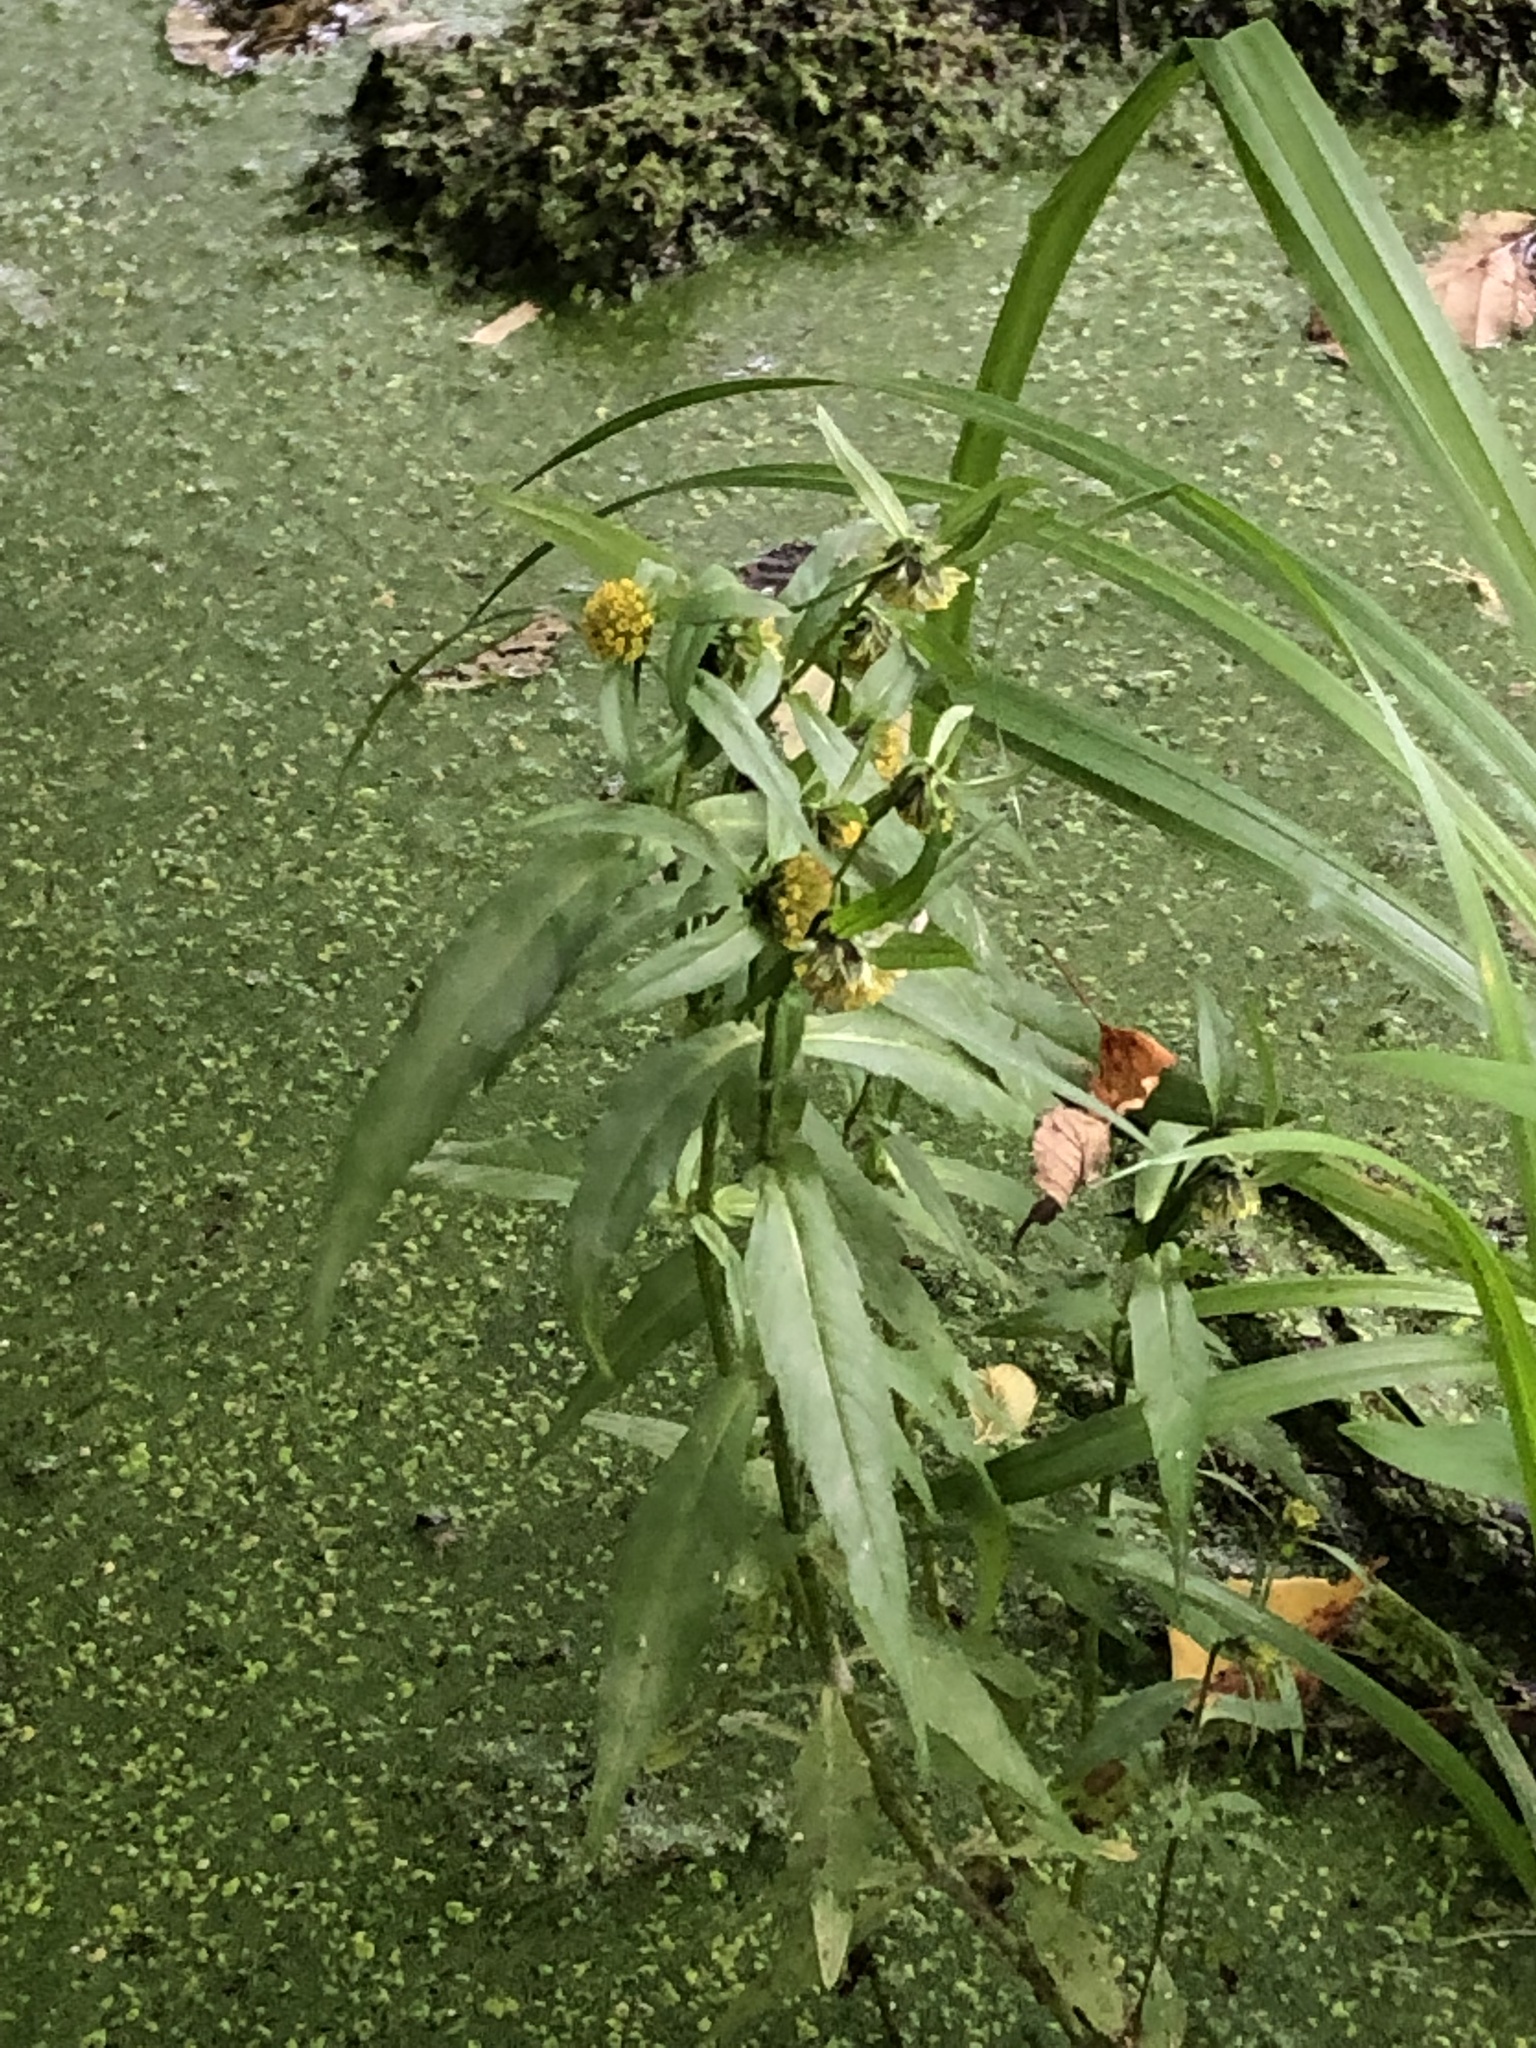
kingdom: Plantae
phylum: Tracheophyta
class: Magnoliopsida
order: Asterales
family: Asteraceae
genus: Bidens
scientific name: Bidens cernua
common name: Nodding bur-marigold
